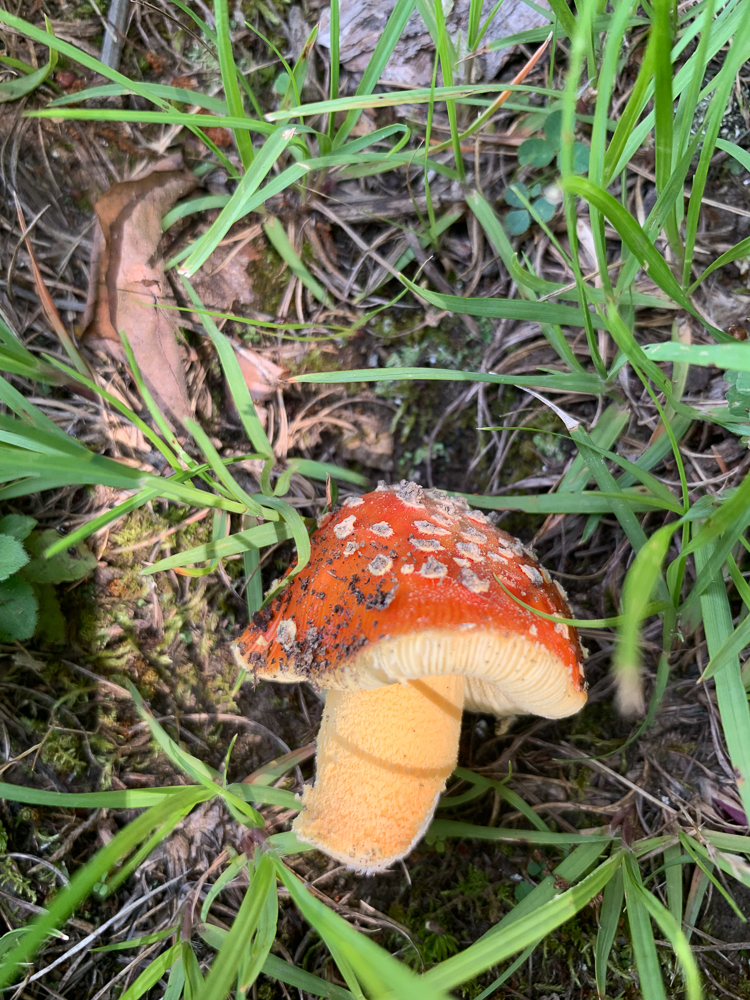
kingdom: Fungi
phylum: Basidiomycota
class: Agaricomycetes
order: Agaricales
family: Amanitaceae
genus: Amanita
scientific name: Amanita parcivolvata
